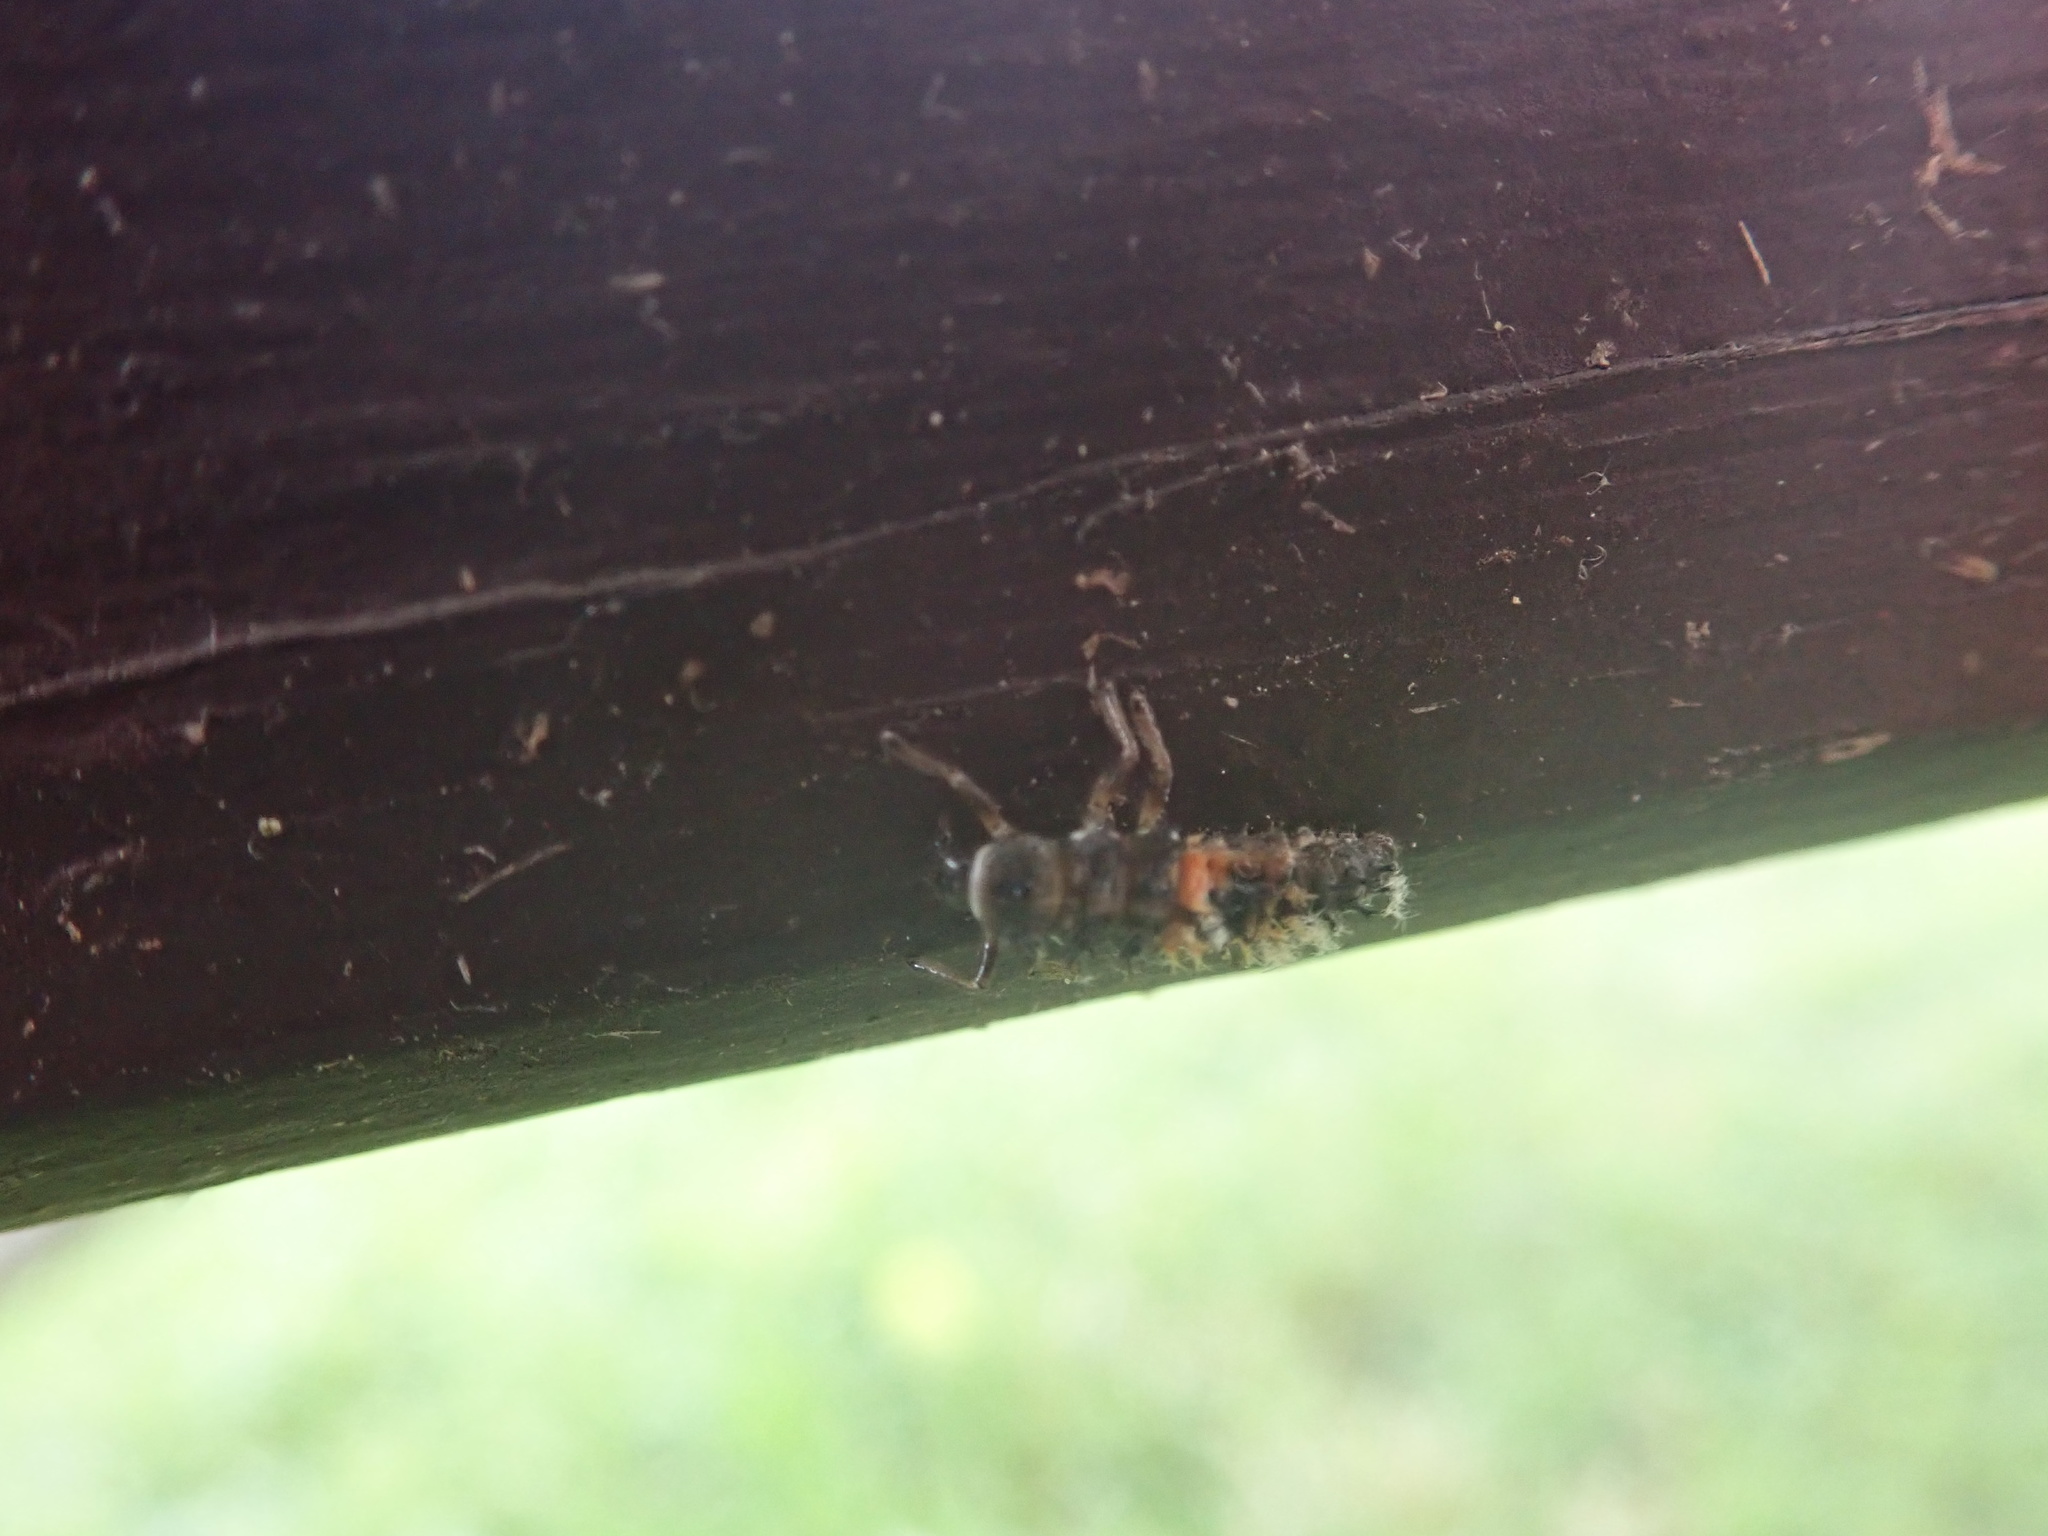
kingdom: Animalia
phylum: Arthropoda
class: Insecta
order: Coleoptera
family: Coccinellidae
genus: Harmonia
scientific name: Harmonia axyridis
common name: Harlequin ladybird
